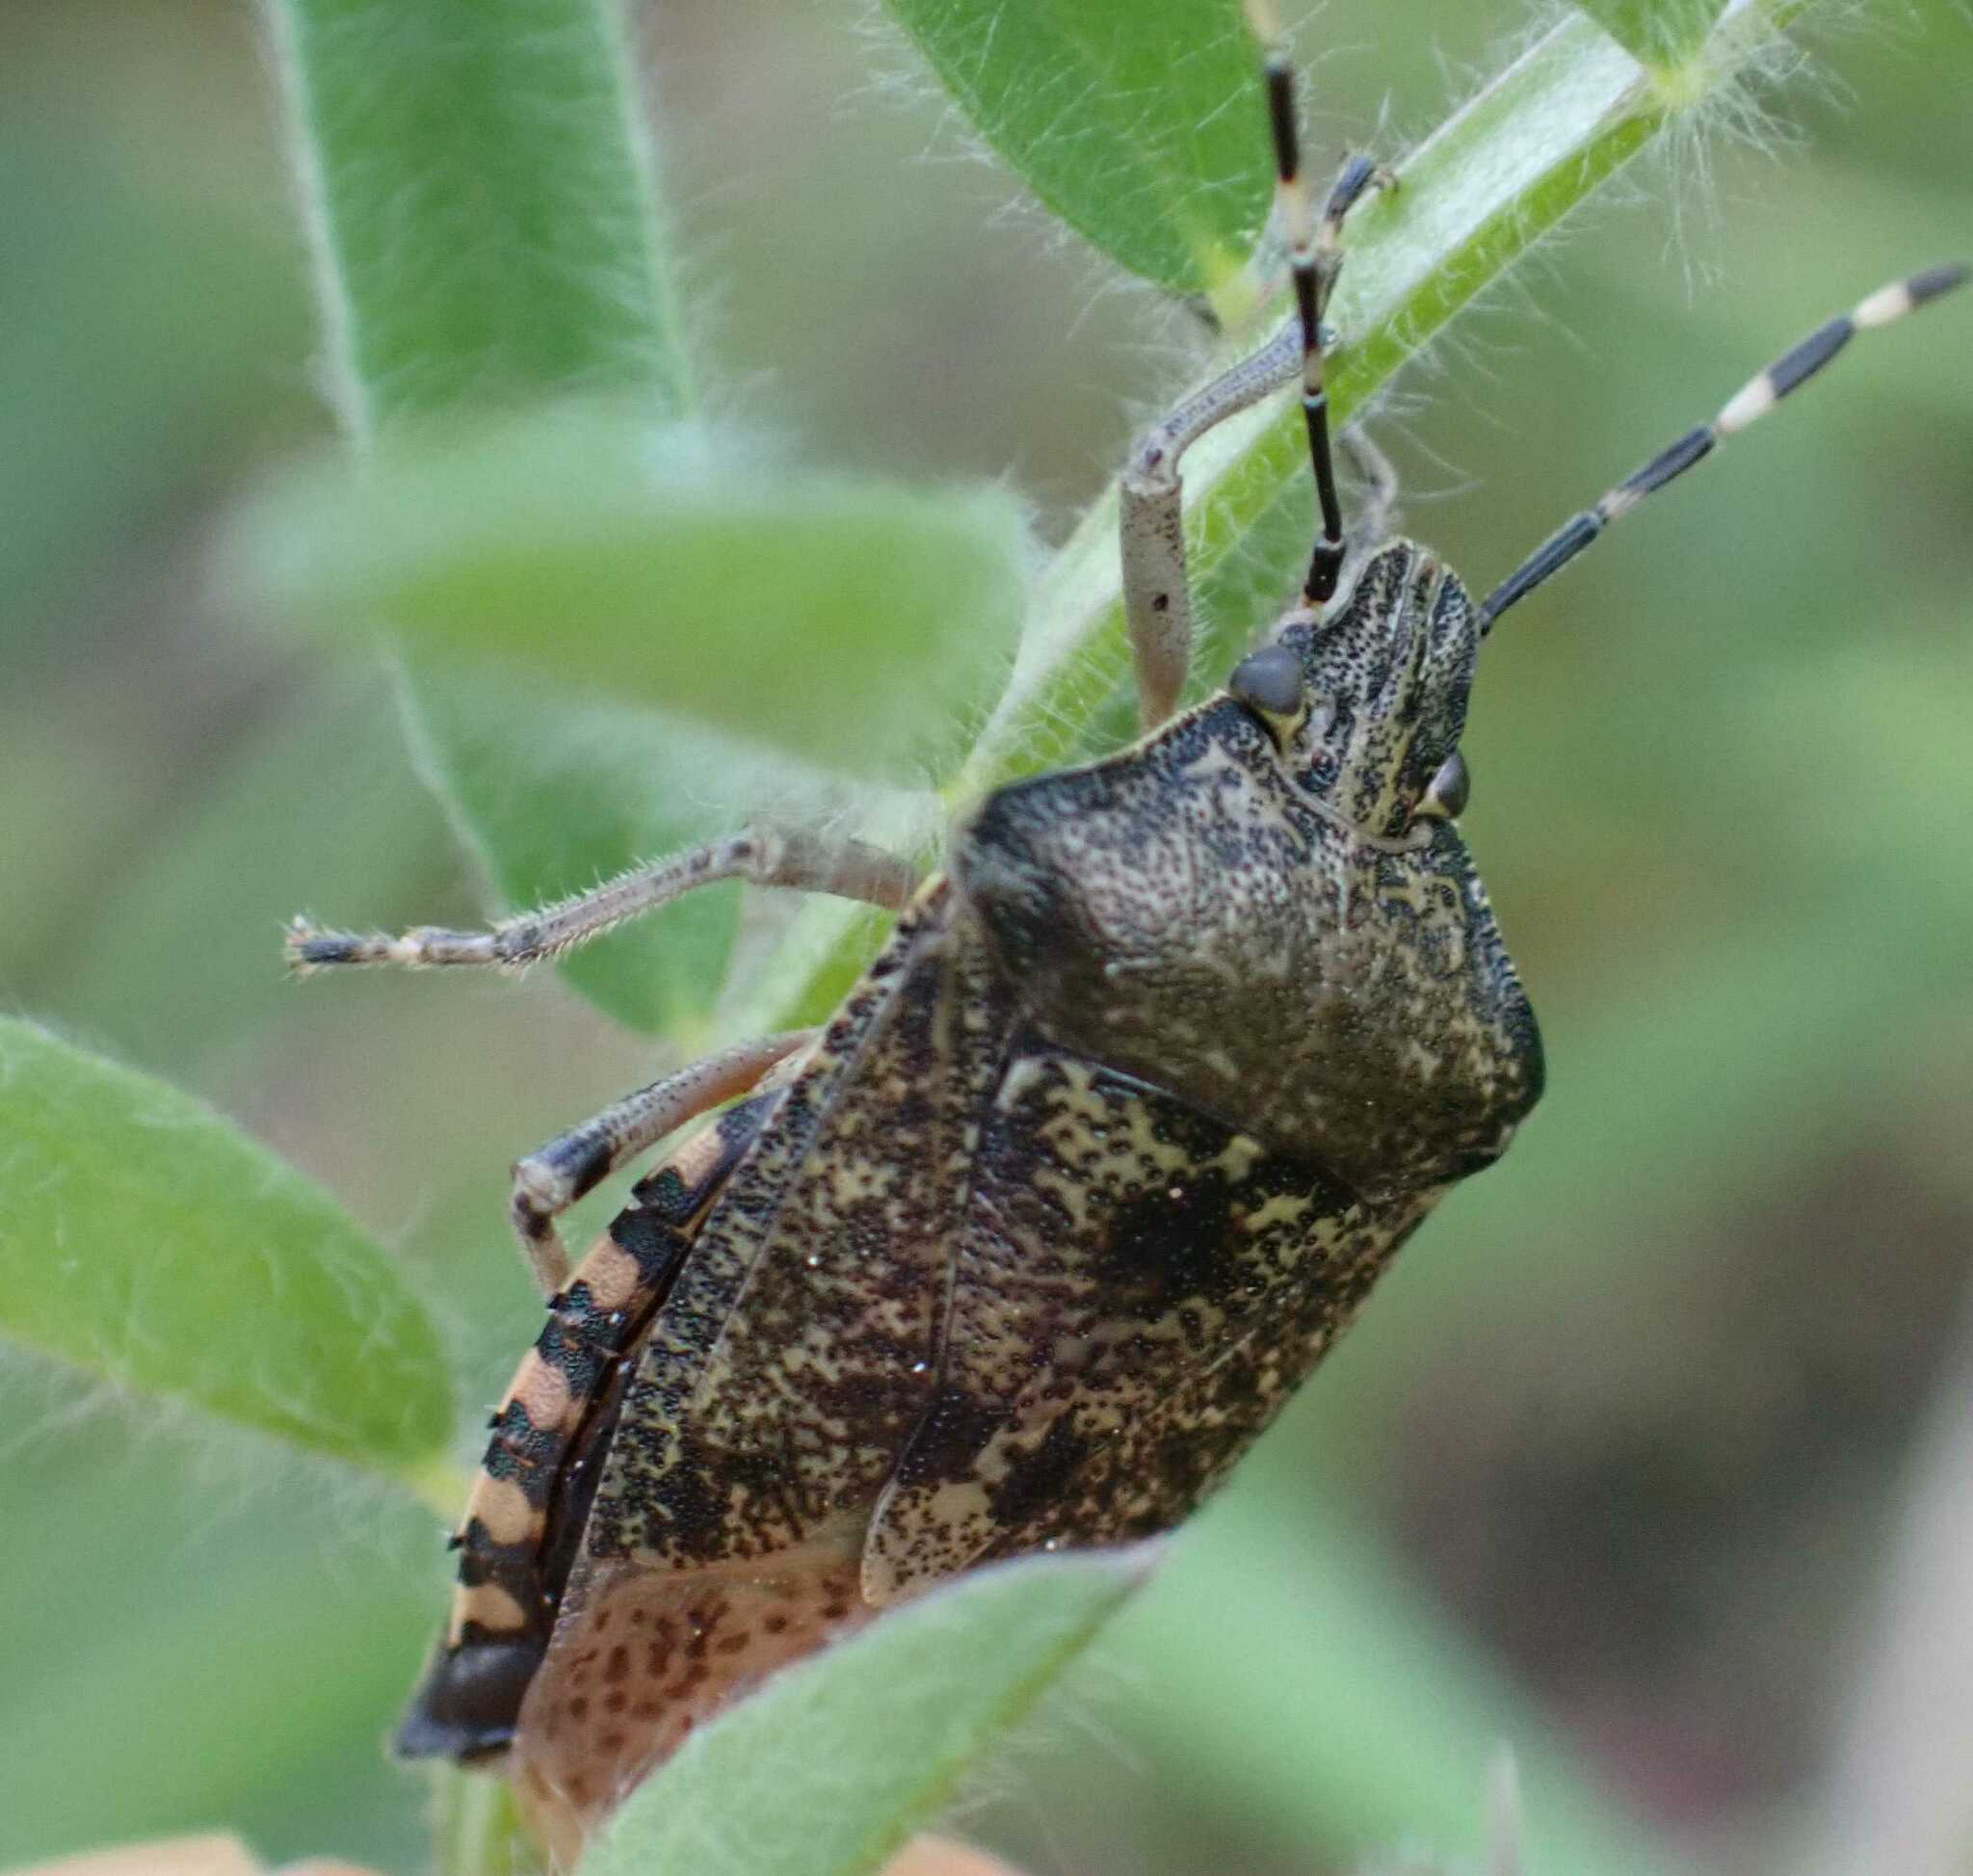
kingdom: Animalia
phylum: Arthropoda
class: Insecta
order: Hemiptera
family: Pentatomidae
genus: Rhaphigaster
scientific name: Rhaphigaster nebulosa
